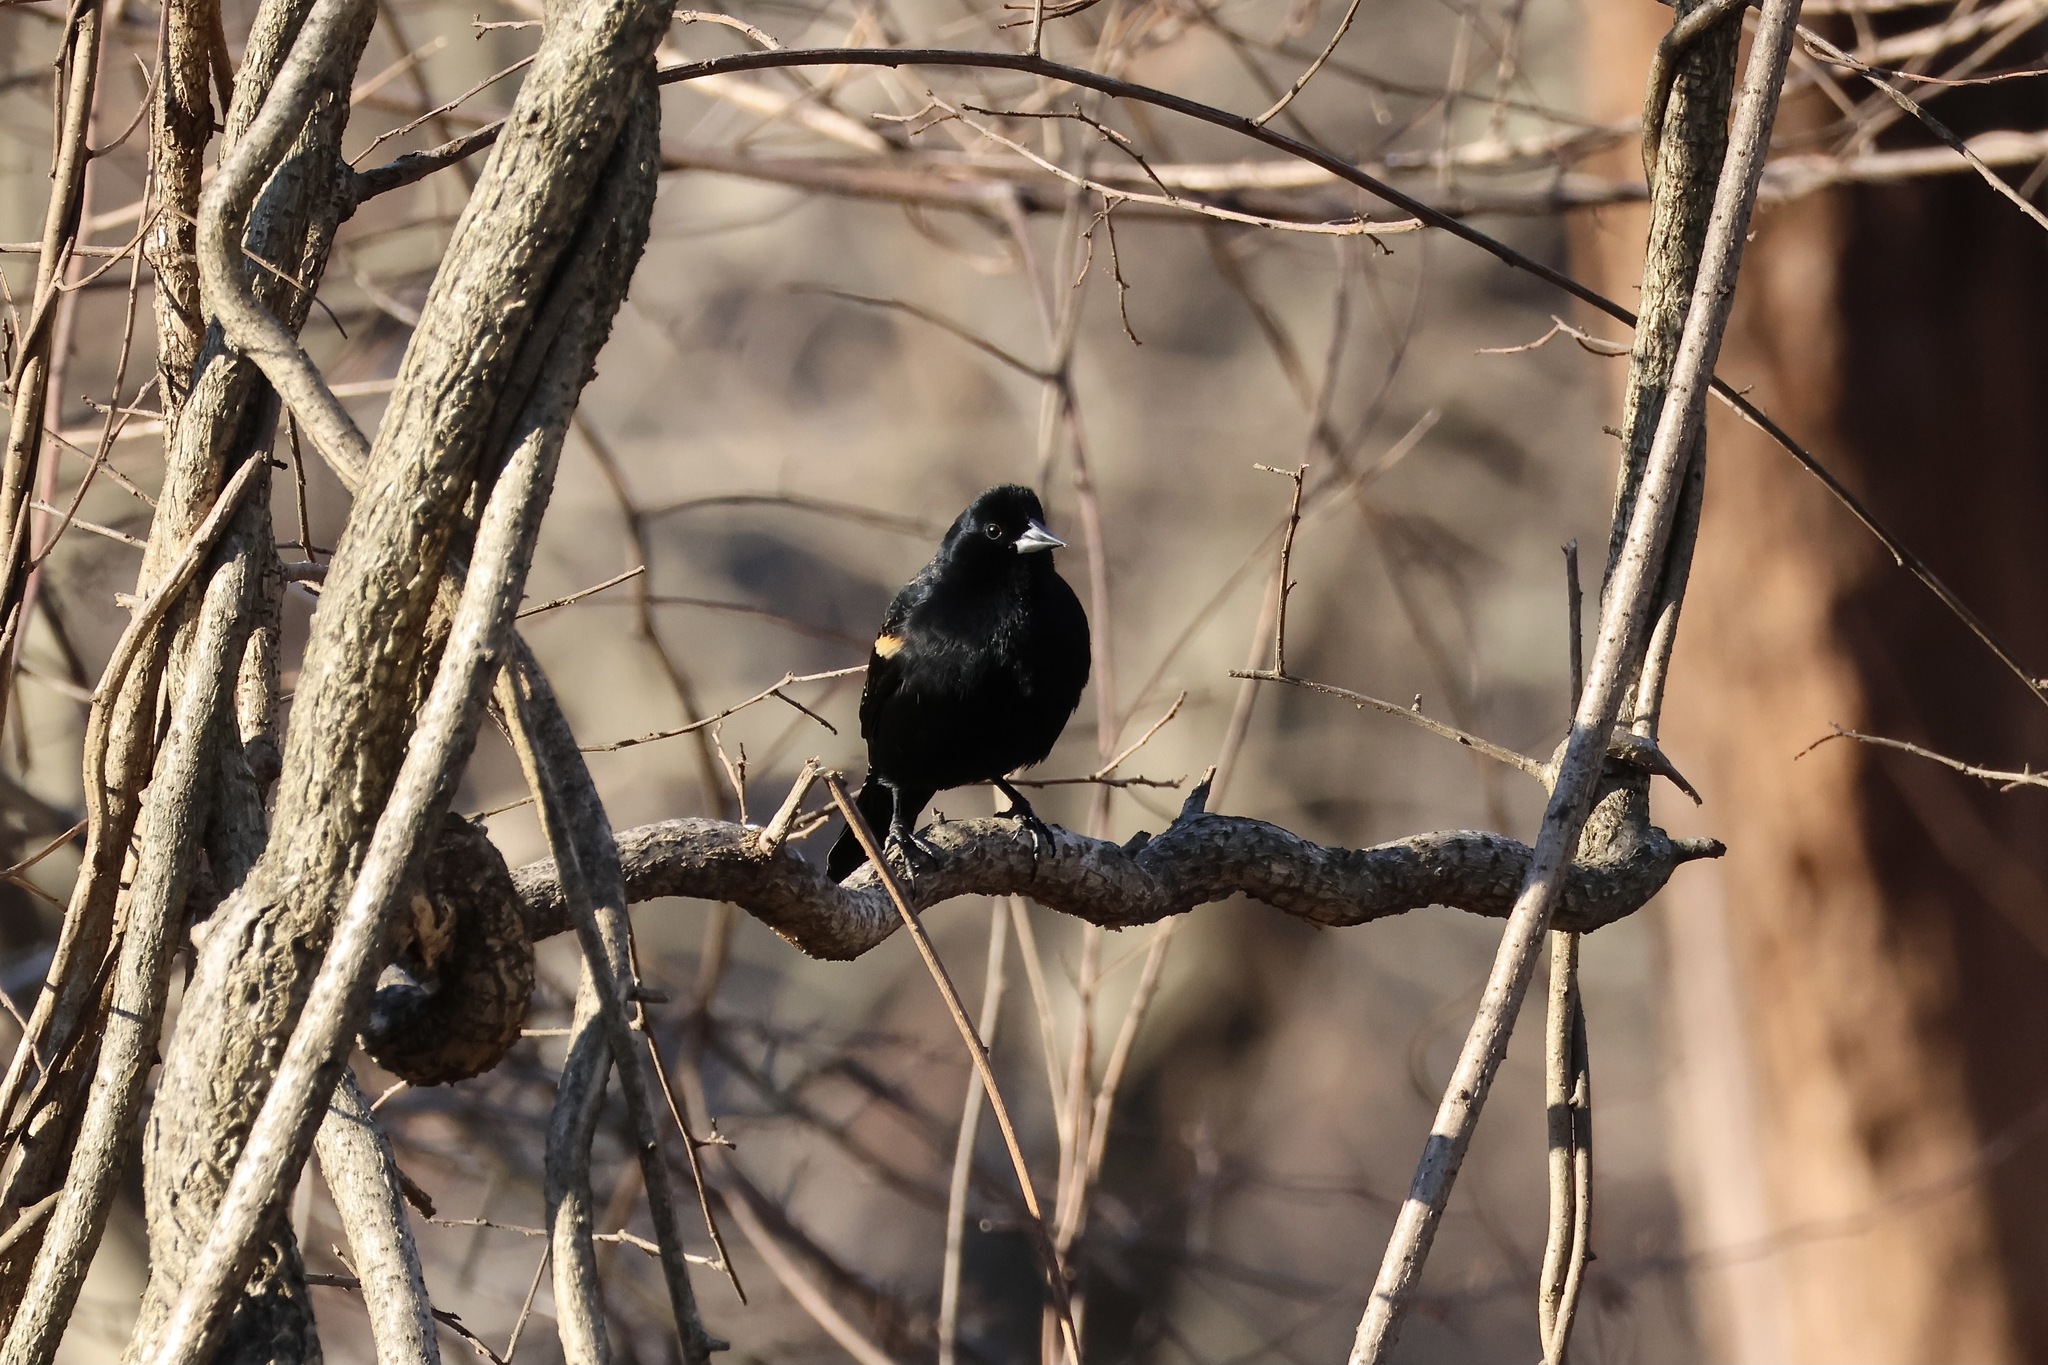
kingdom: Animalia
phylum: Chordata
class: Aves
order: Passeriformes
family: Icteridae
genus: Agelaius
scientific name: Agelaius phoeniceus
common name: Red-winged blackbird
